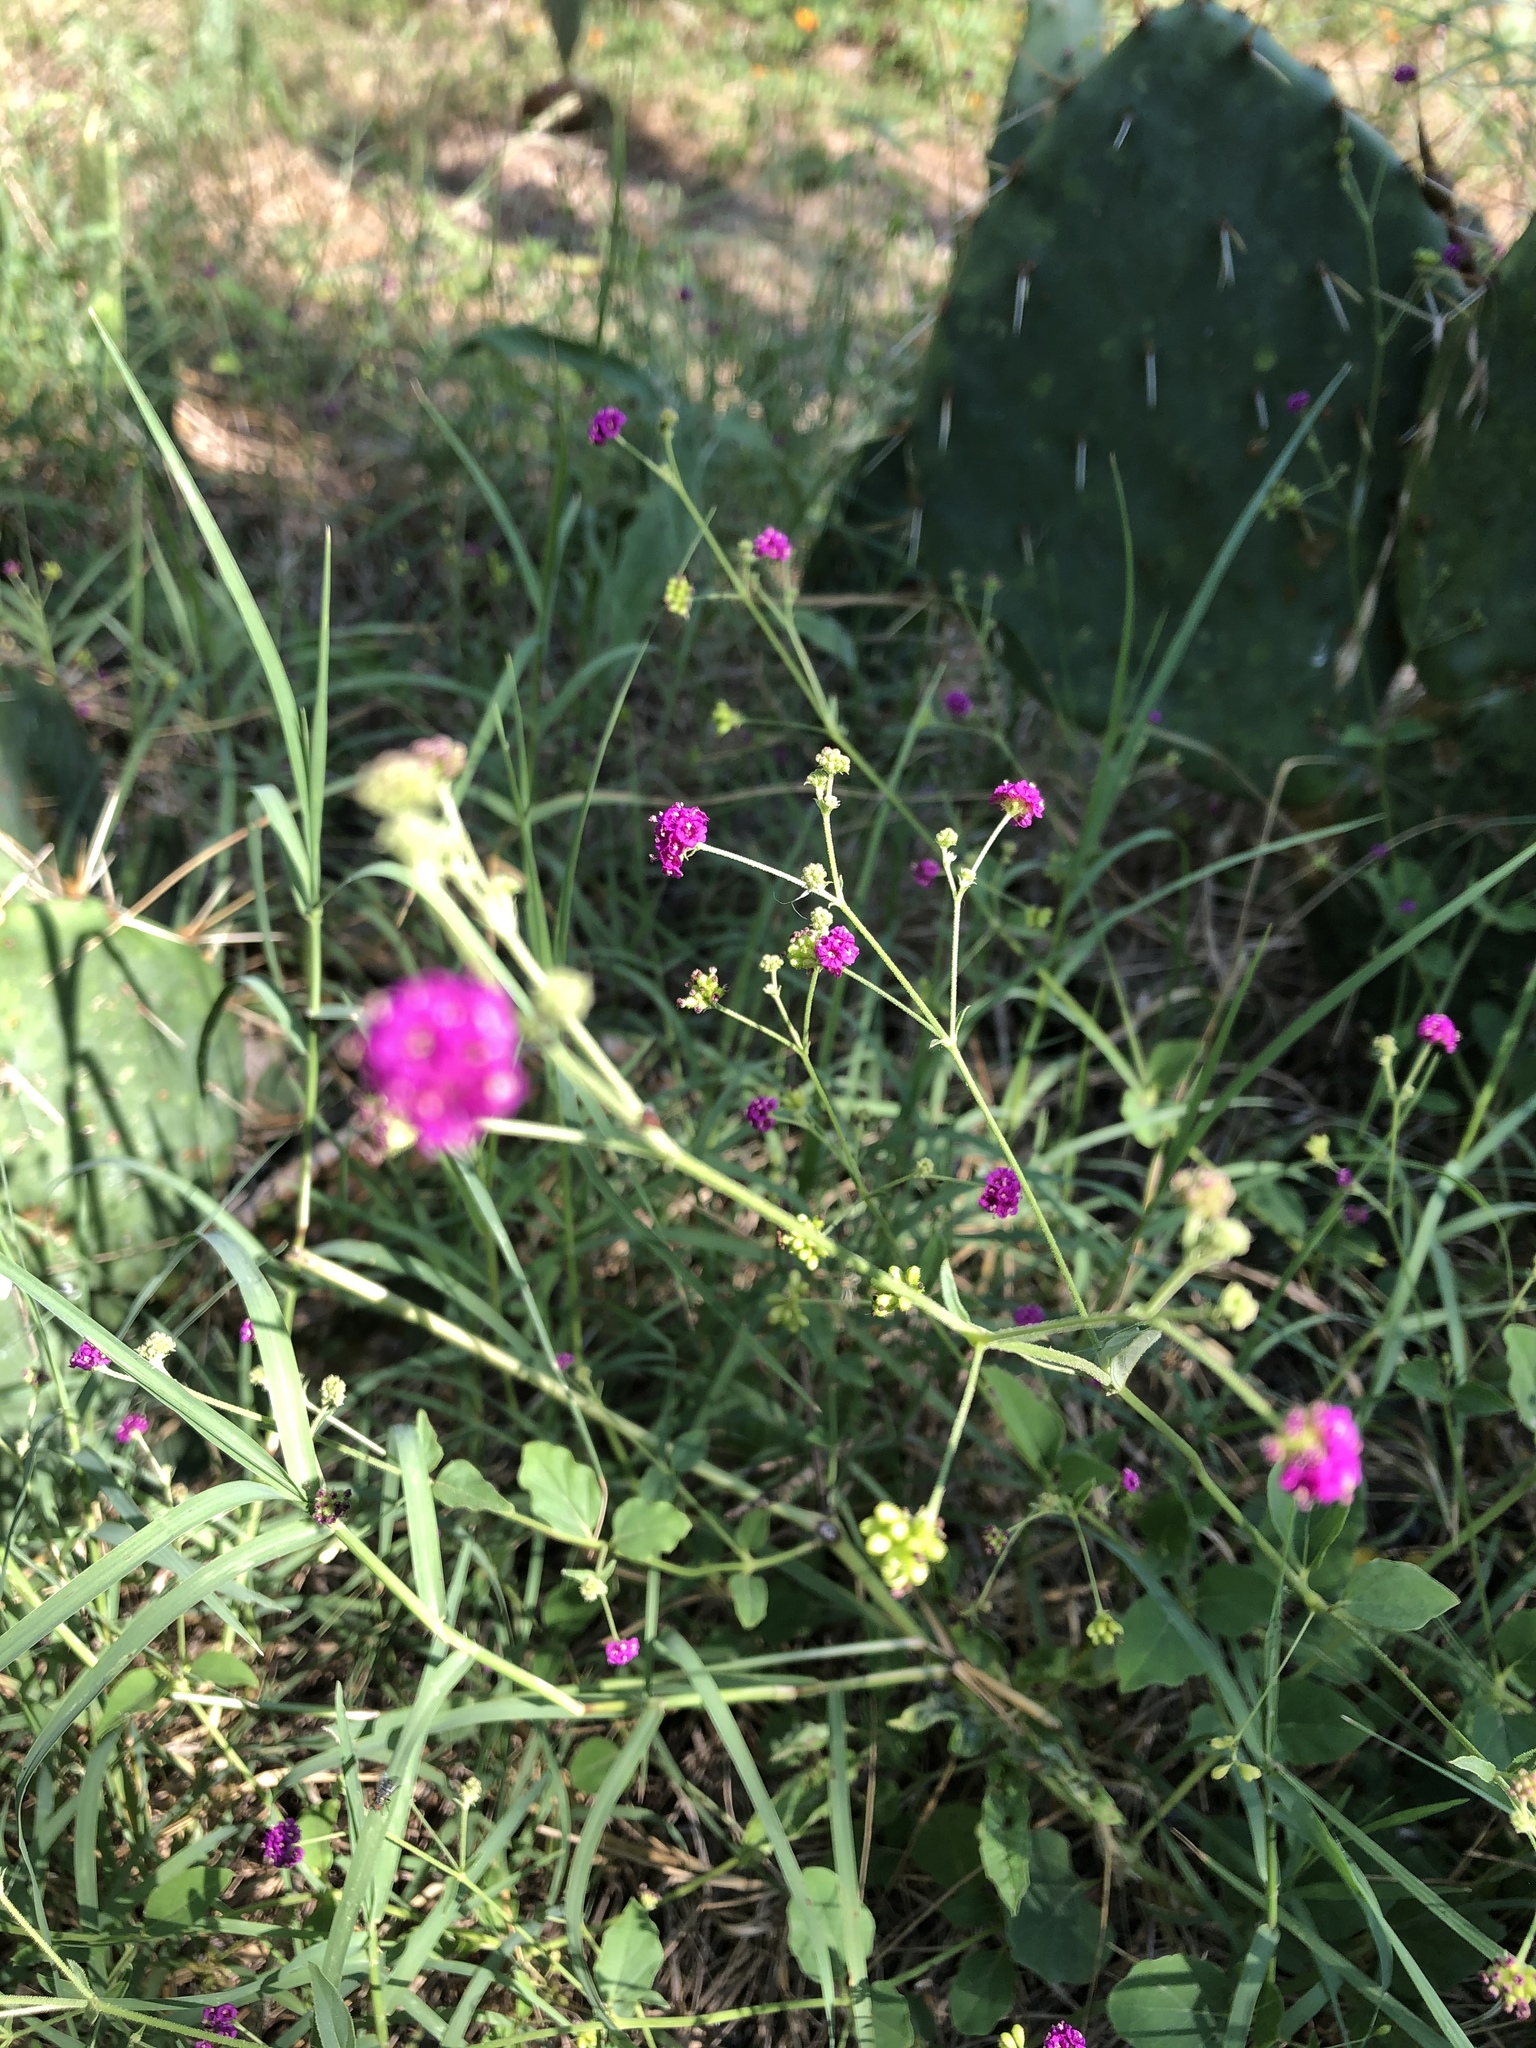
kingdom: Plantae
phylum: Tracheophyta
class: Magnoliopsida
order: Caryophyllales
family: Nyctaginaceae
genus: Boerhavia
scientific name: Boerhavia coccinea
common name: Scarlet spiderling
